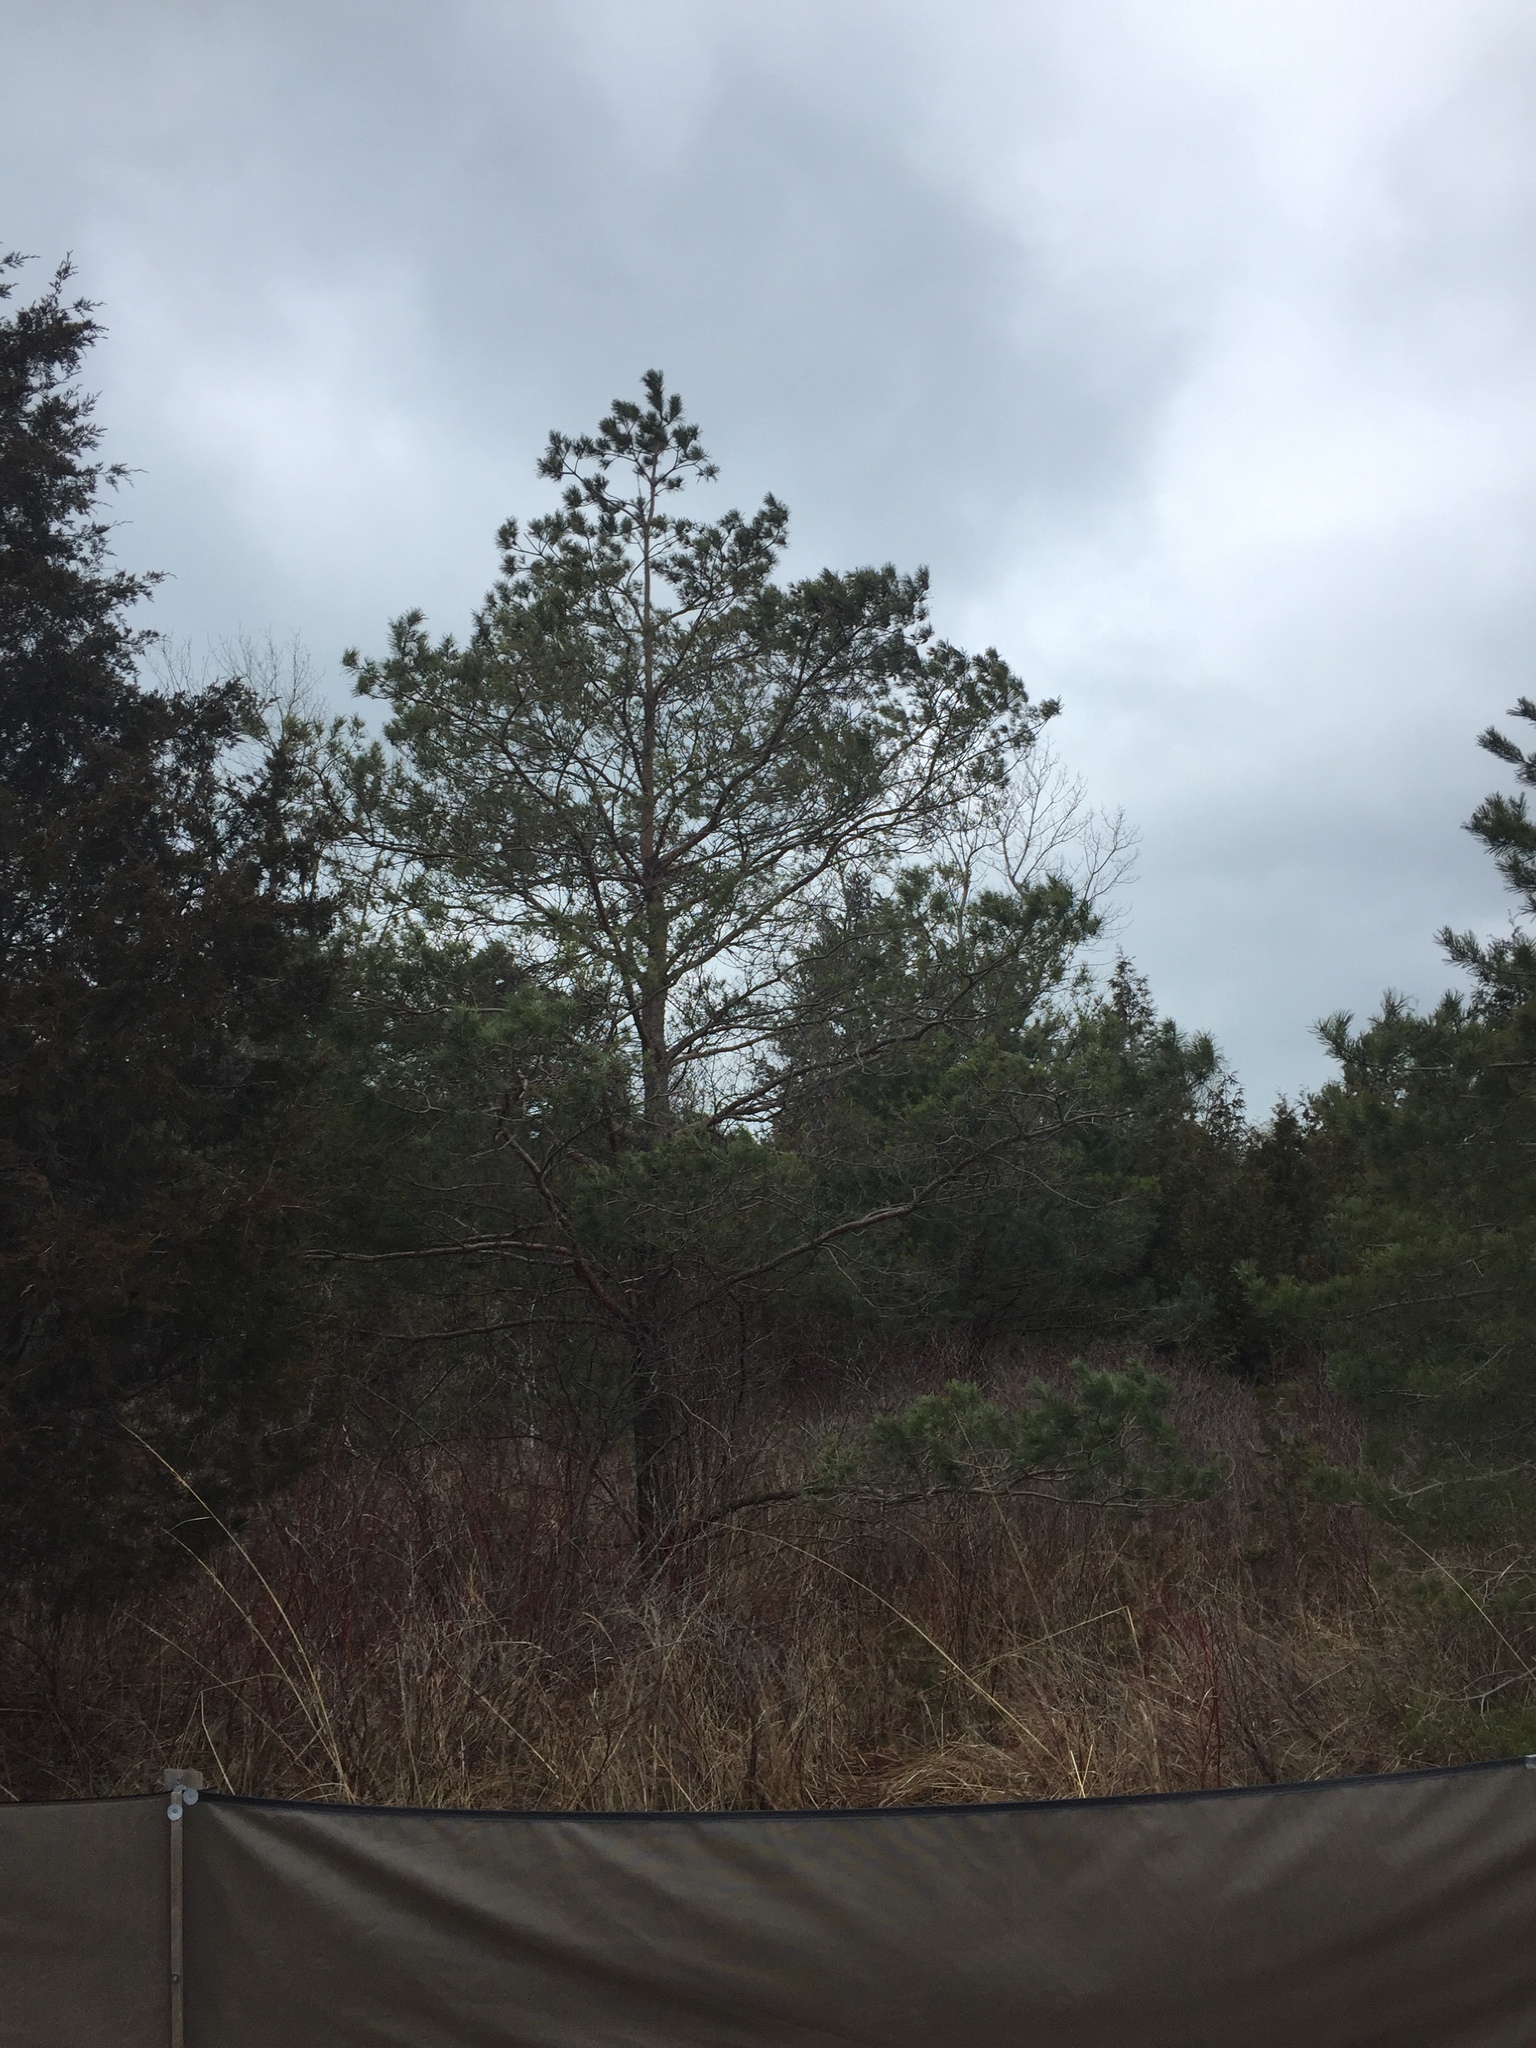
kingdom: Plantae
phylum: Tracheophyta
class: Pinopsida
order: Pinales
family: Pinaceae
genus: Pinus
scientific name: Pinus sylvestris
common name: Scots pine
